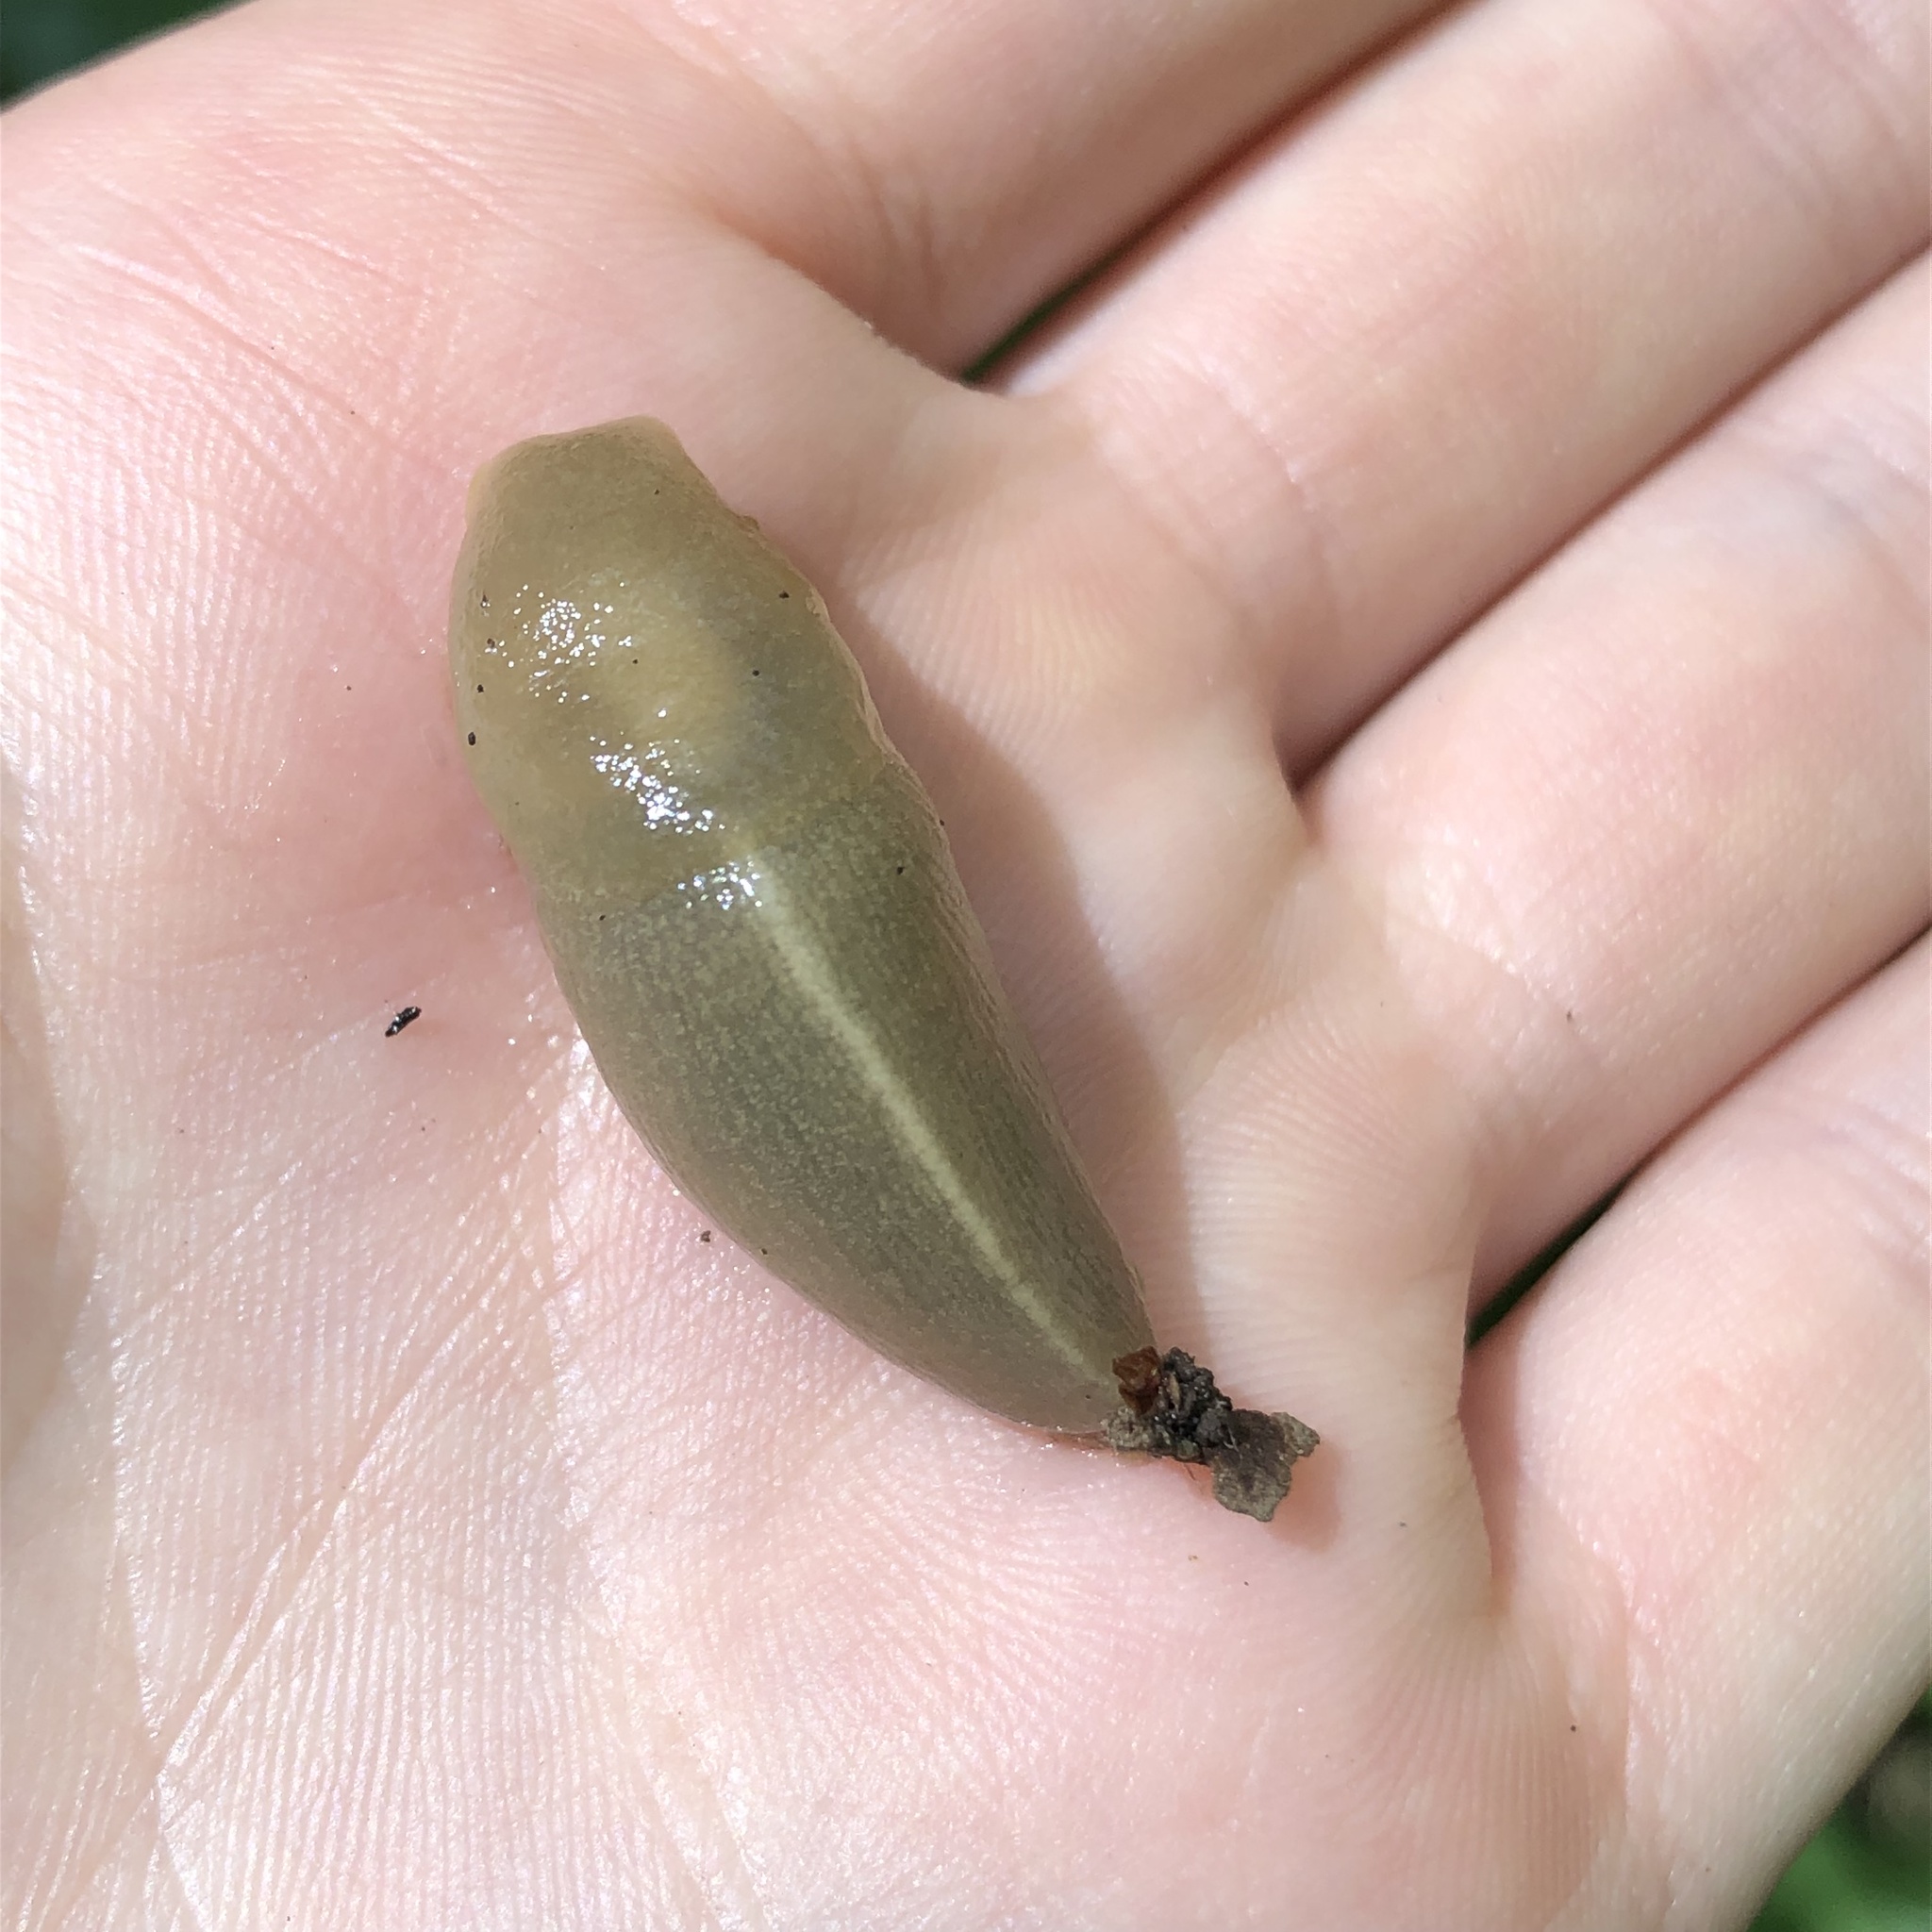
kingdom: Animalia
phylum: Mollusca
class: Gastropoda
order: Stylommatophora
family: Ariolimacidae
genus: Ariolimax
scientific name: Ariolimax columbianus
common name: Pacific banana slug
